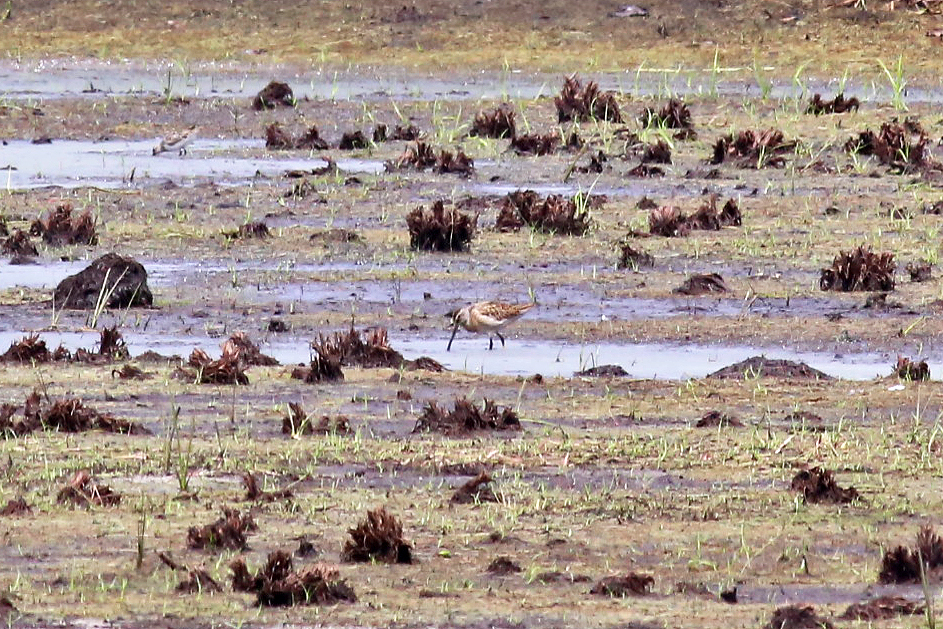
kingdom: Animalia
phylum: Chordata
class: Aves
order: Charadriiformes
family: Scolopacidae
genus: Limnodromus
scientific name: Limnodromus griseus
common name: Short-billed dowitcher
